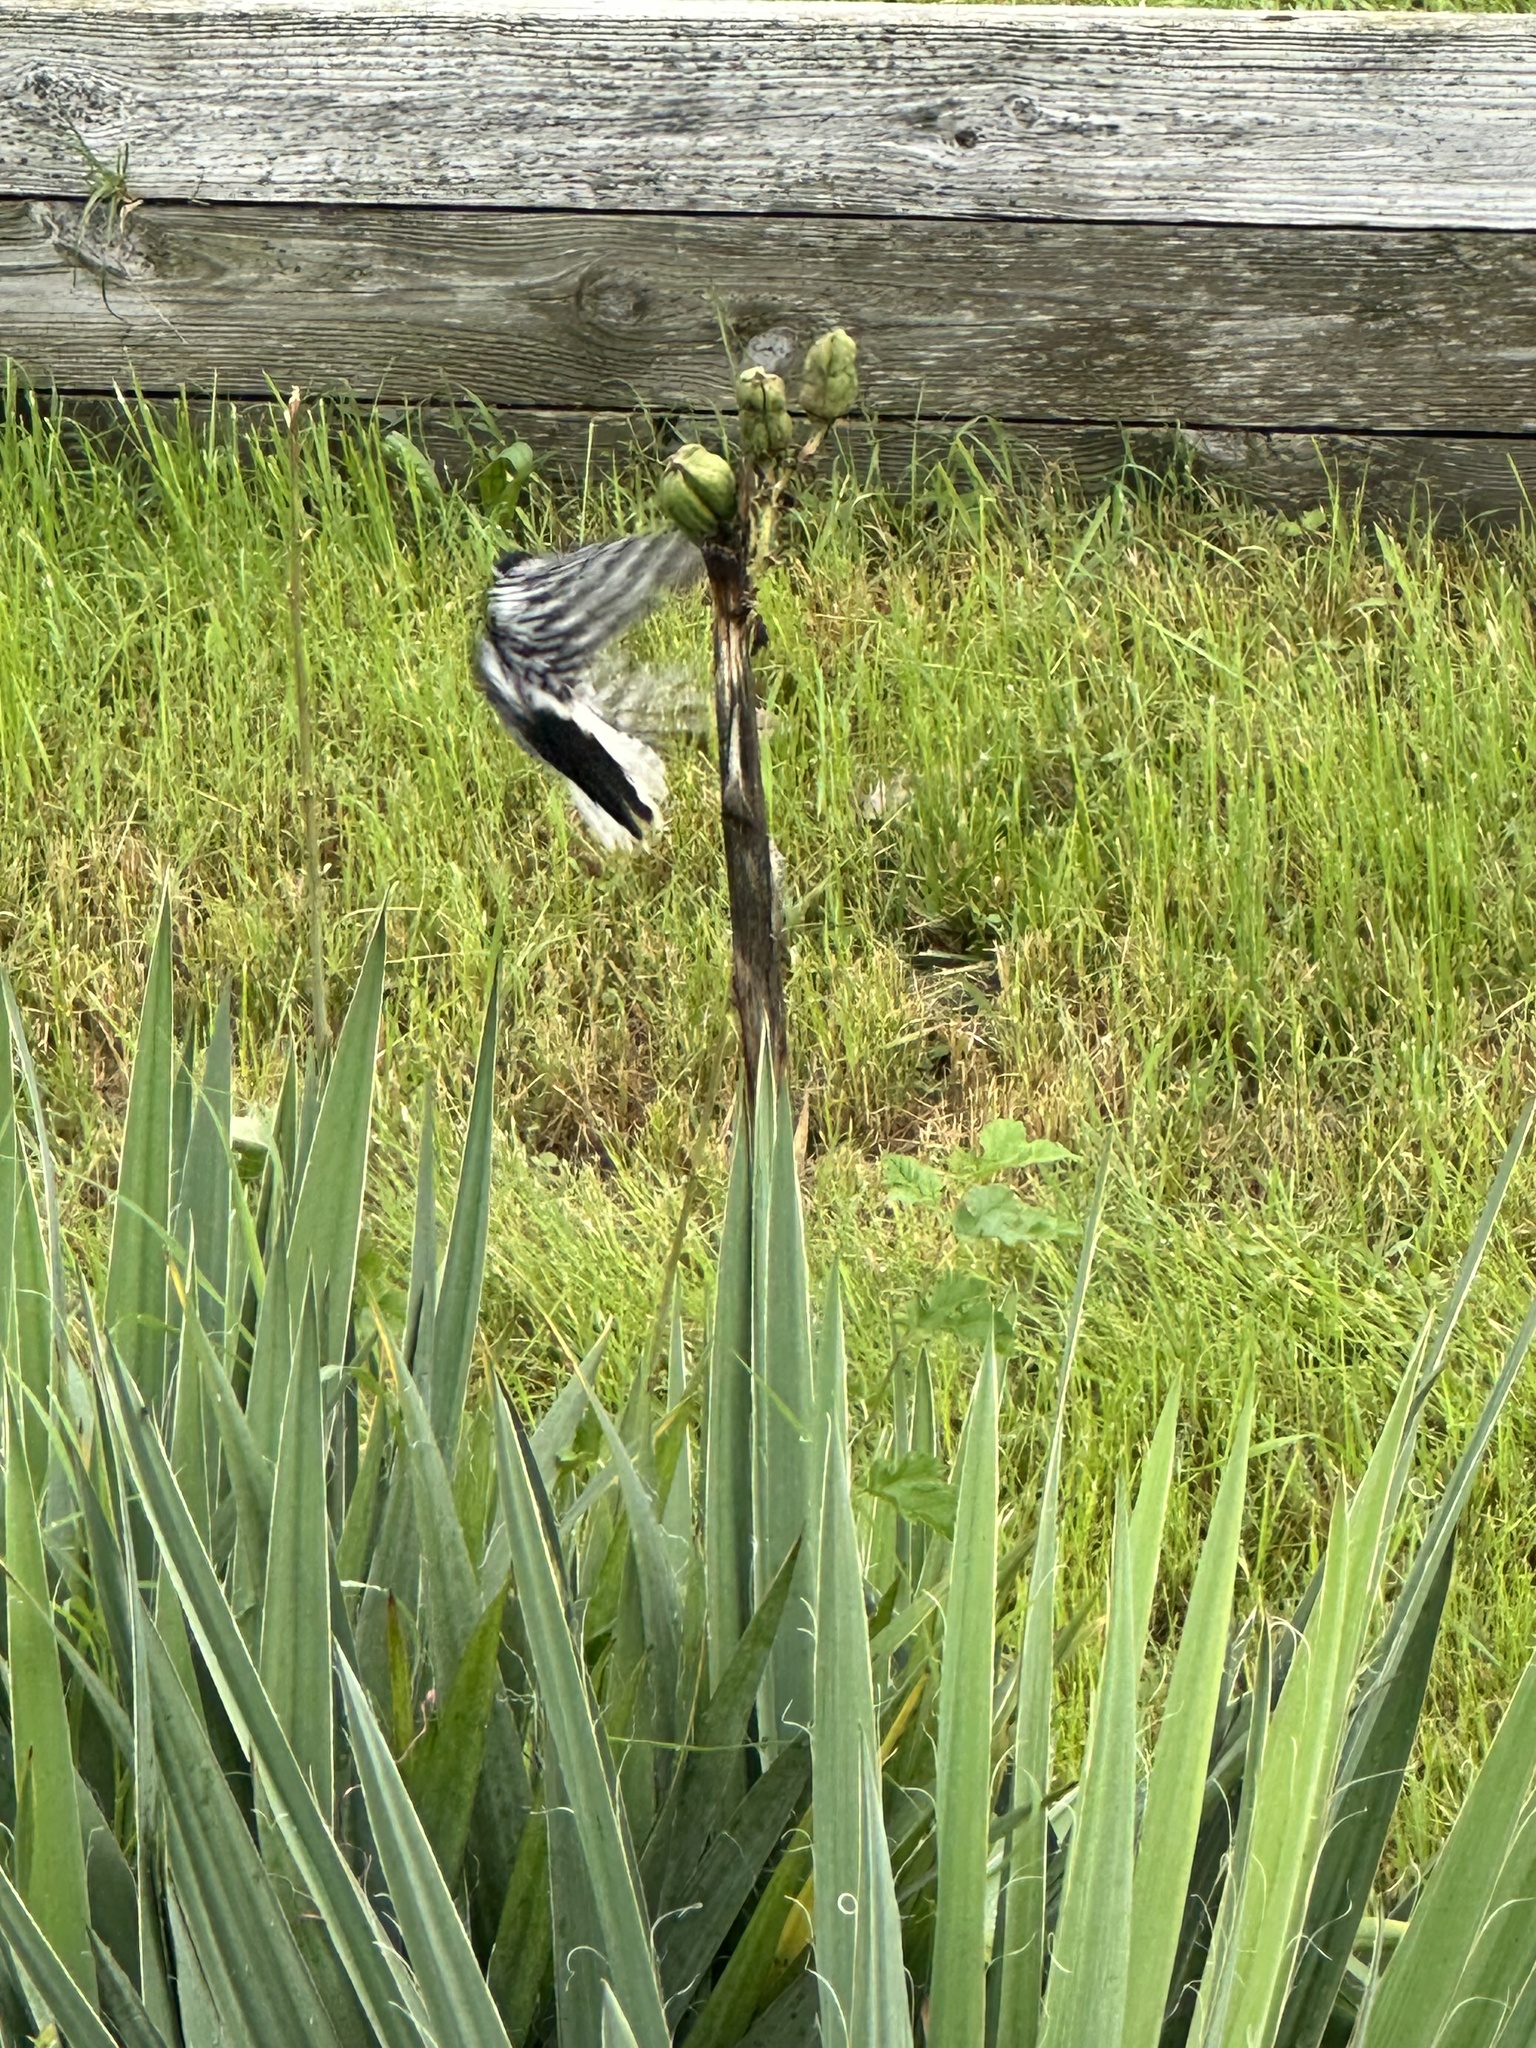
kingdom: Animalia
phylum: Chordata
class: Aves
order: Piciformes
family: Picidae
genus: Dryobates
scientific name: Dryobates pubescens
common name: Downy woodpecker
